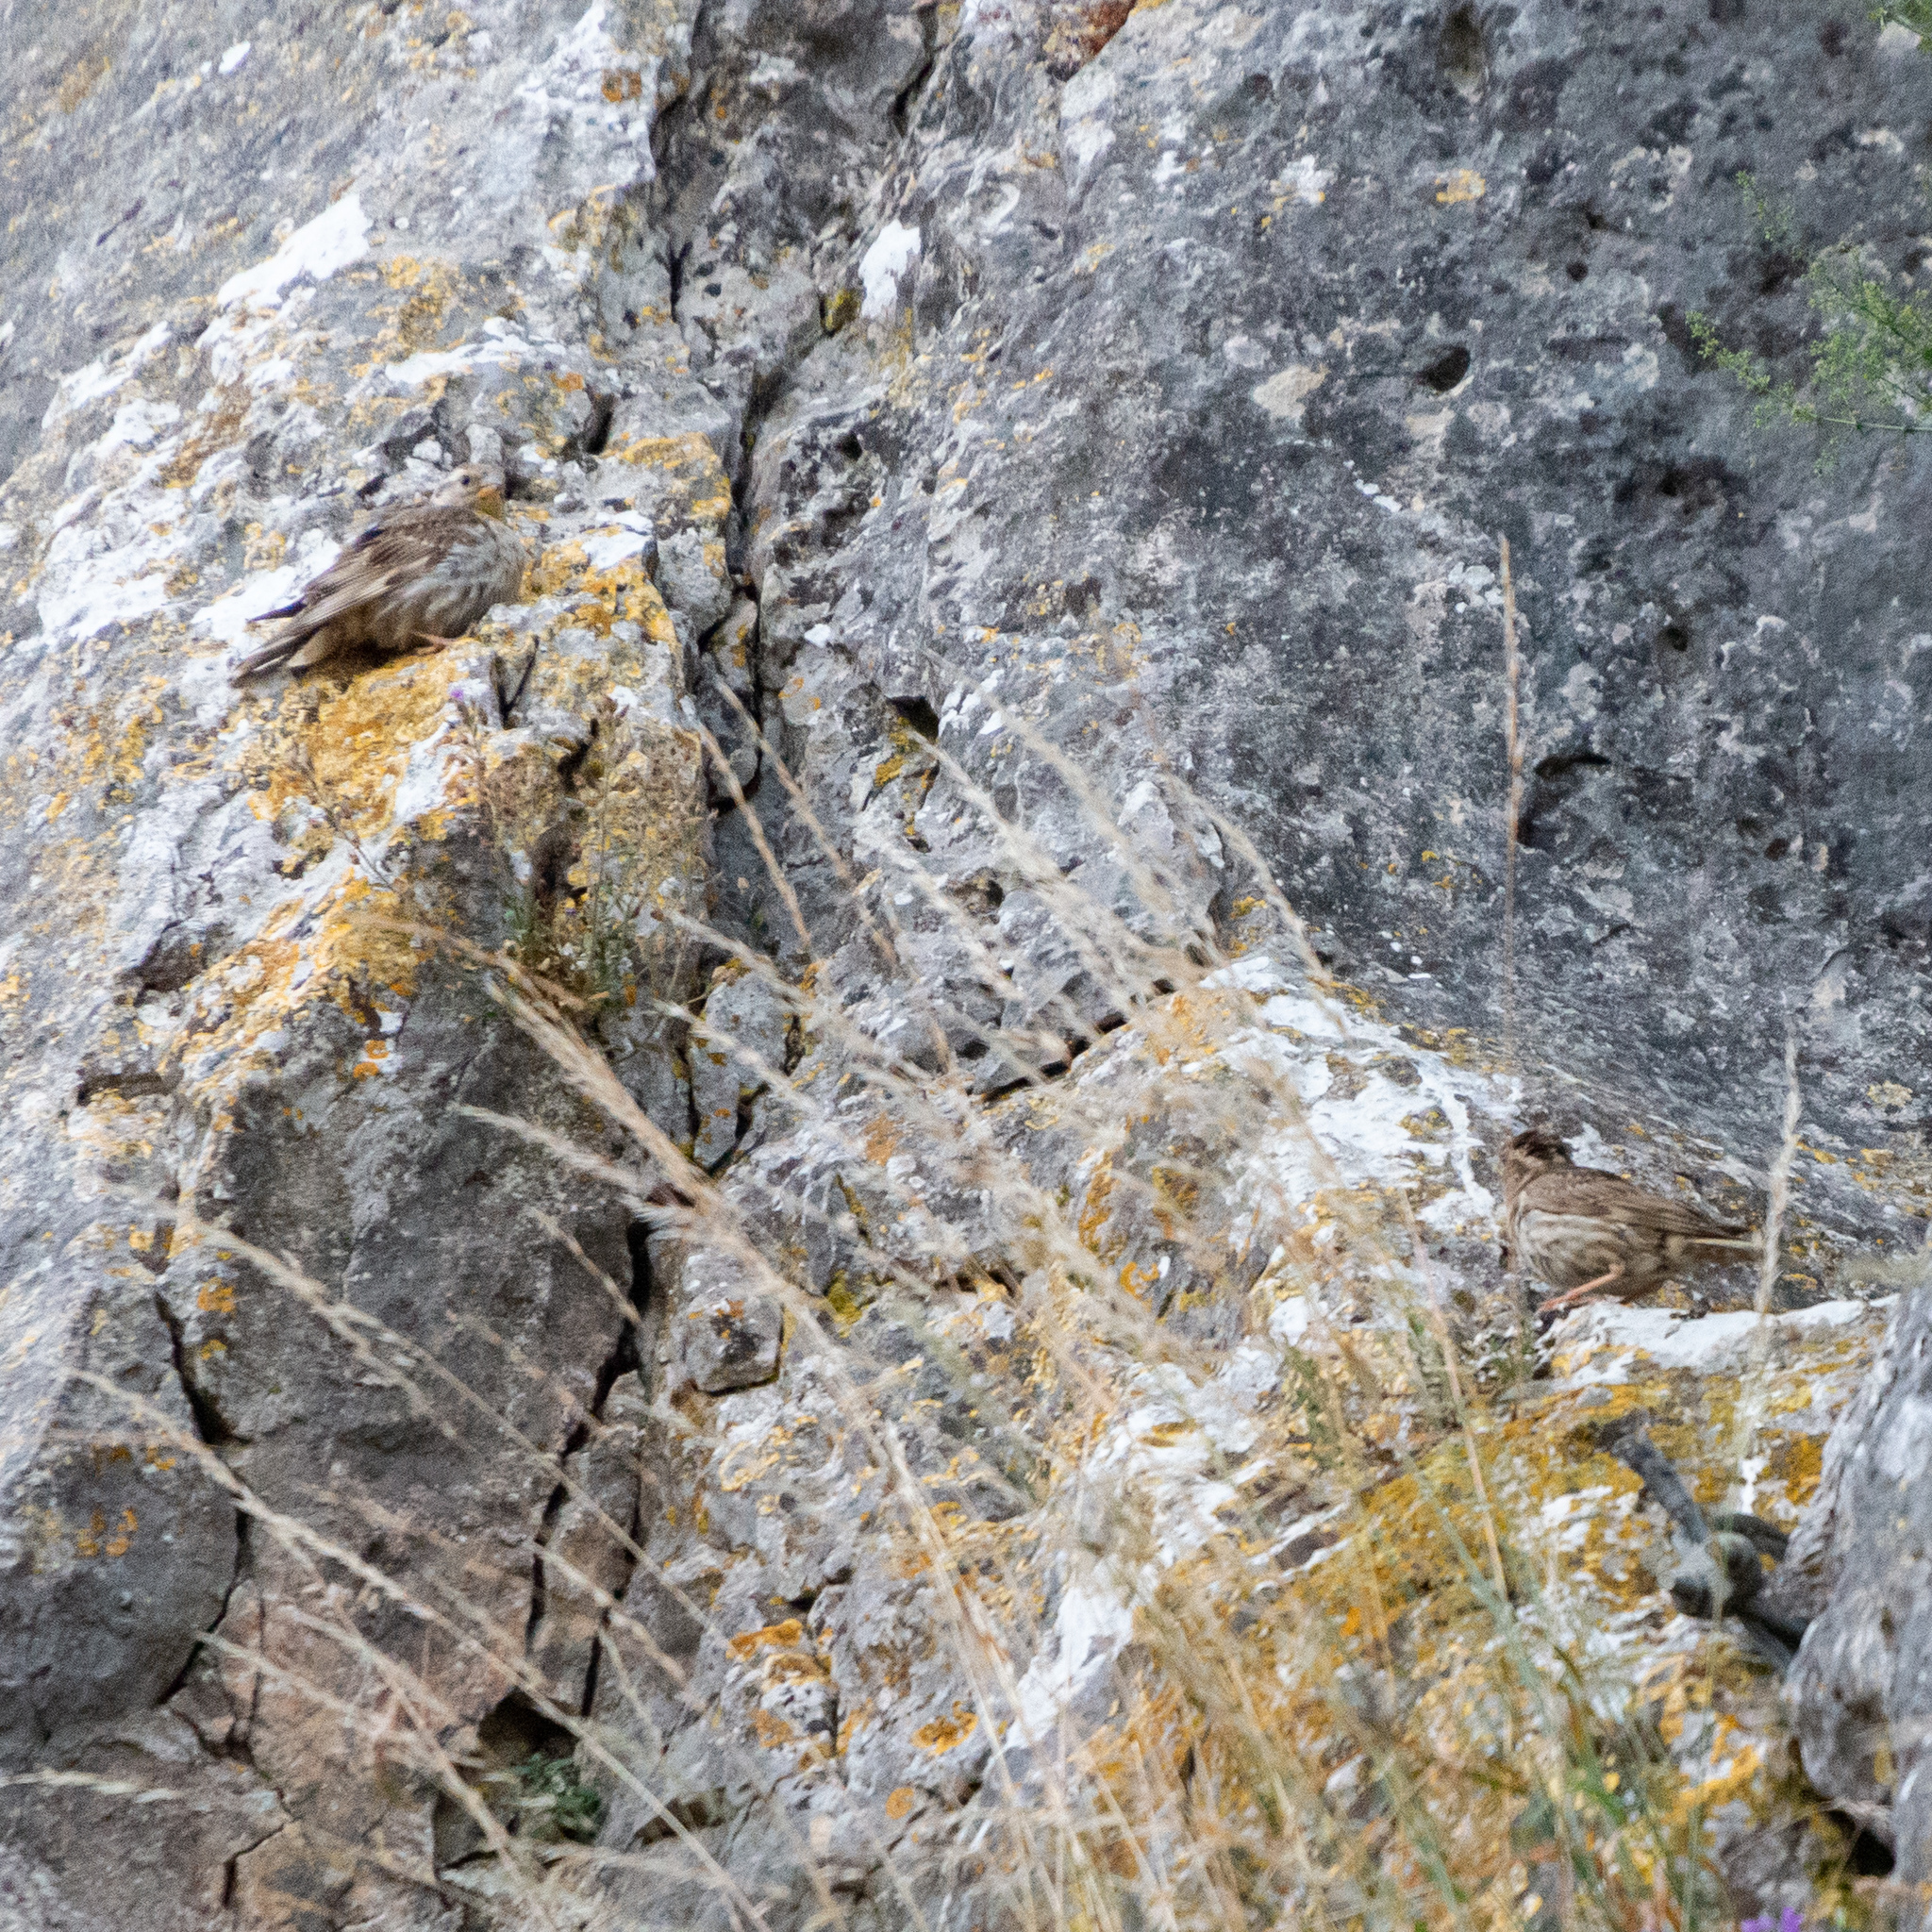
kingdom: Animalia
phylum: Chordata
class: Aves
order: Passeriformes
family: Passeridae
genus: Petronia
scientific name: Petronia petronia
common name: Rock sparrow
